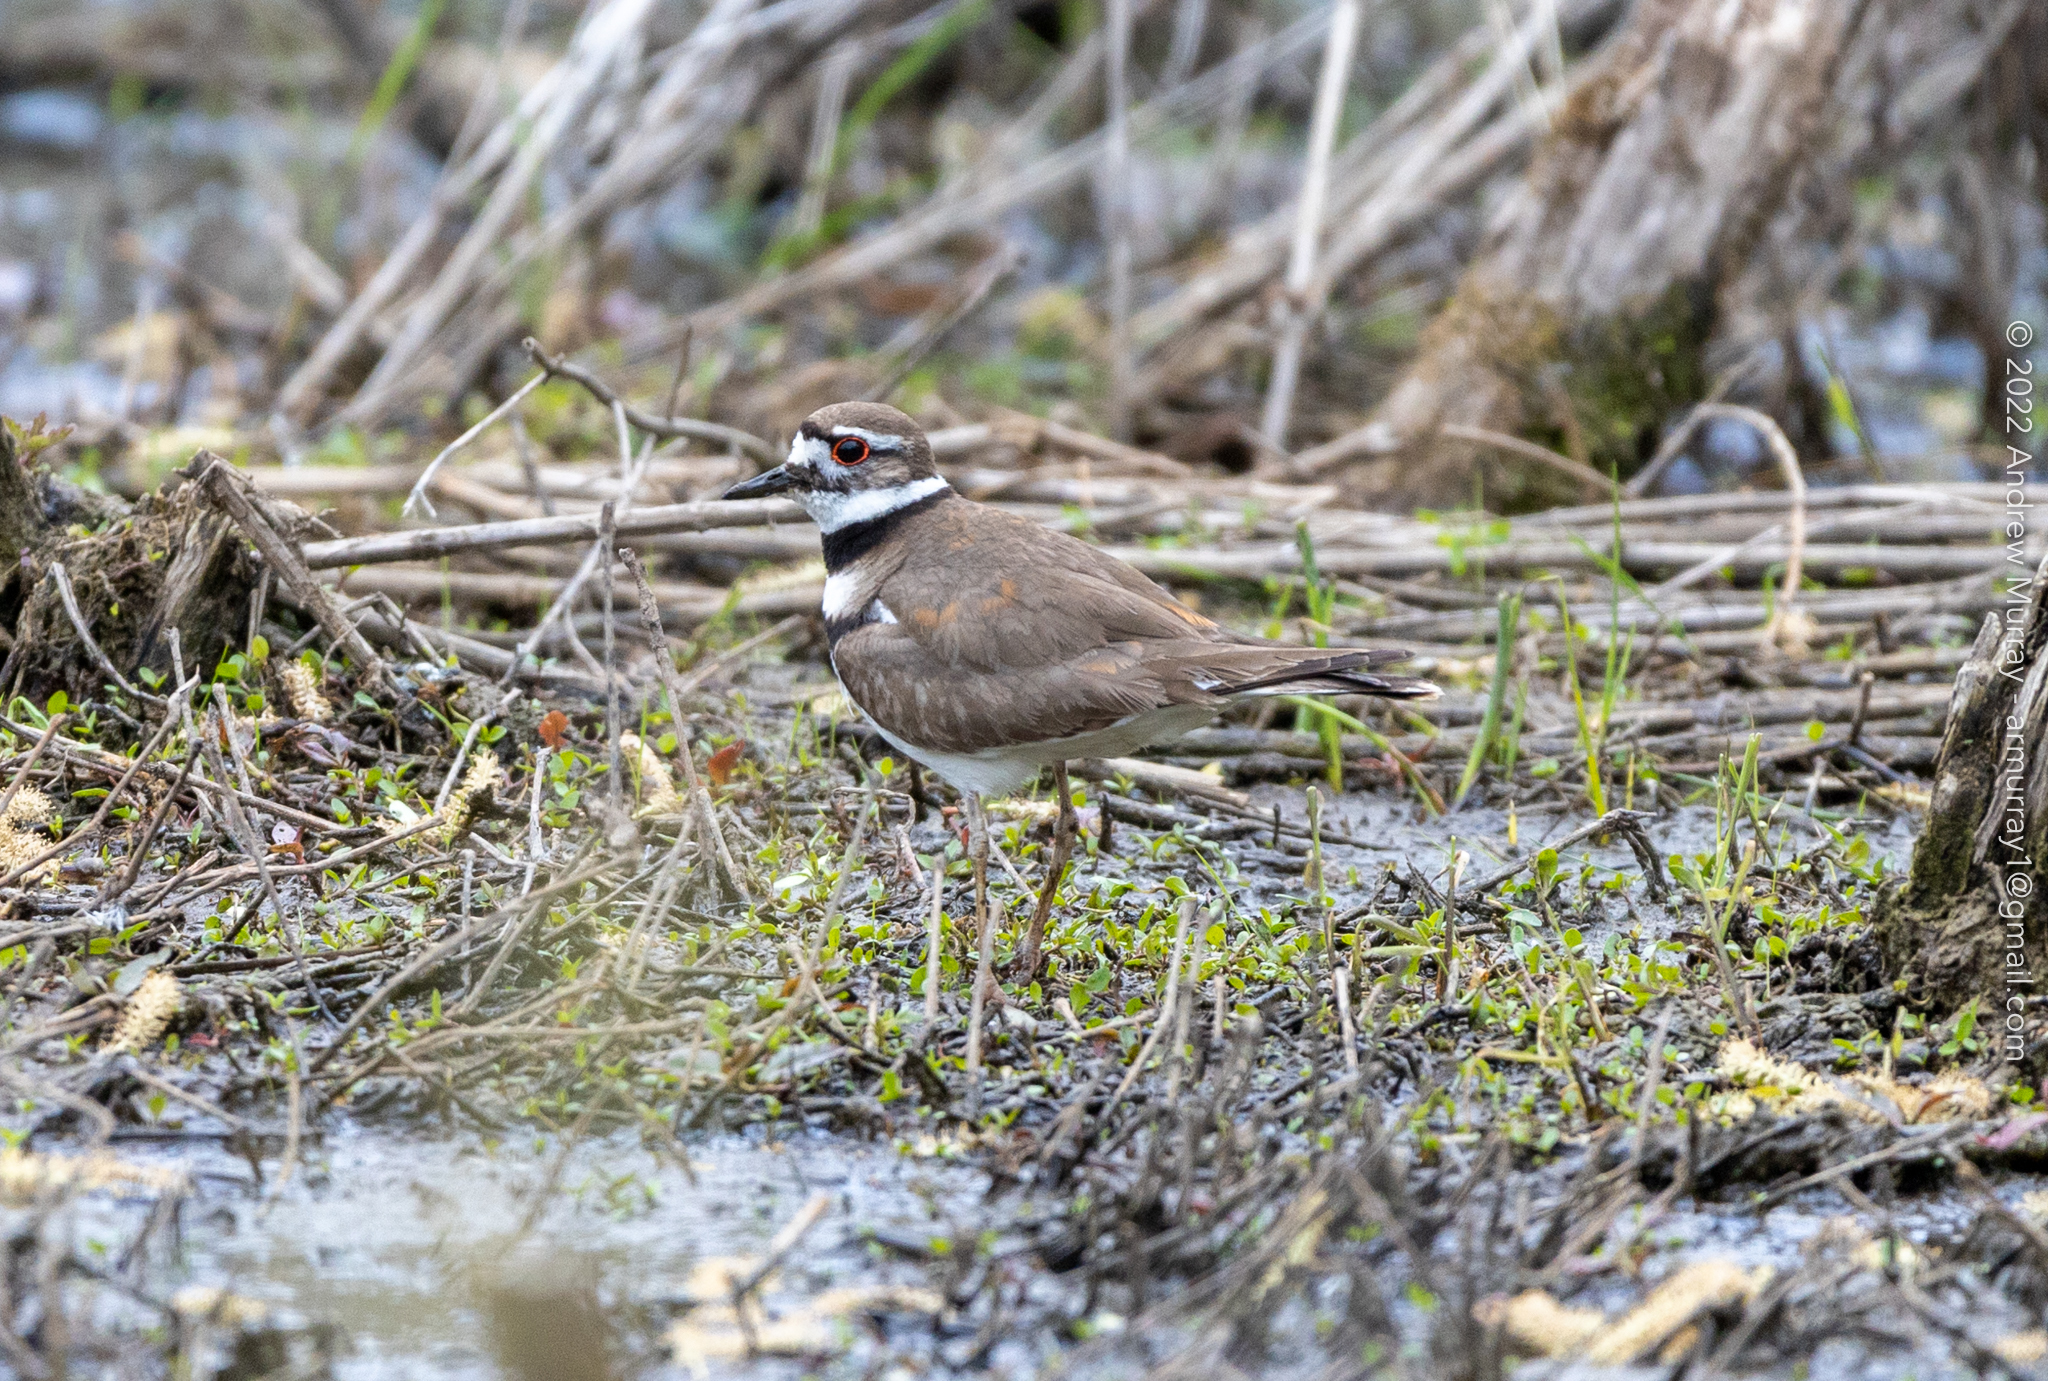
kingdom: Animalia
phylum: Chordata
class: Aves
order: Charadriiformes
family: Charadriidae
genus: Charadrius
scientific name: Charadrius vociferus
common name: Killdeer
